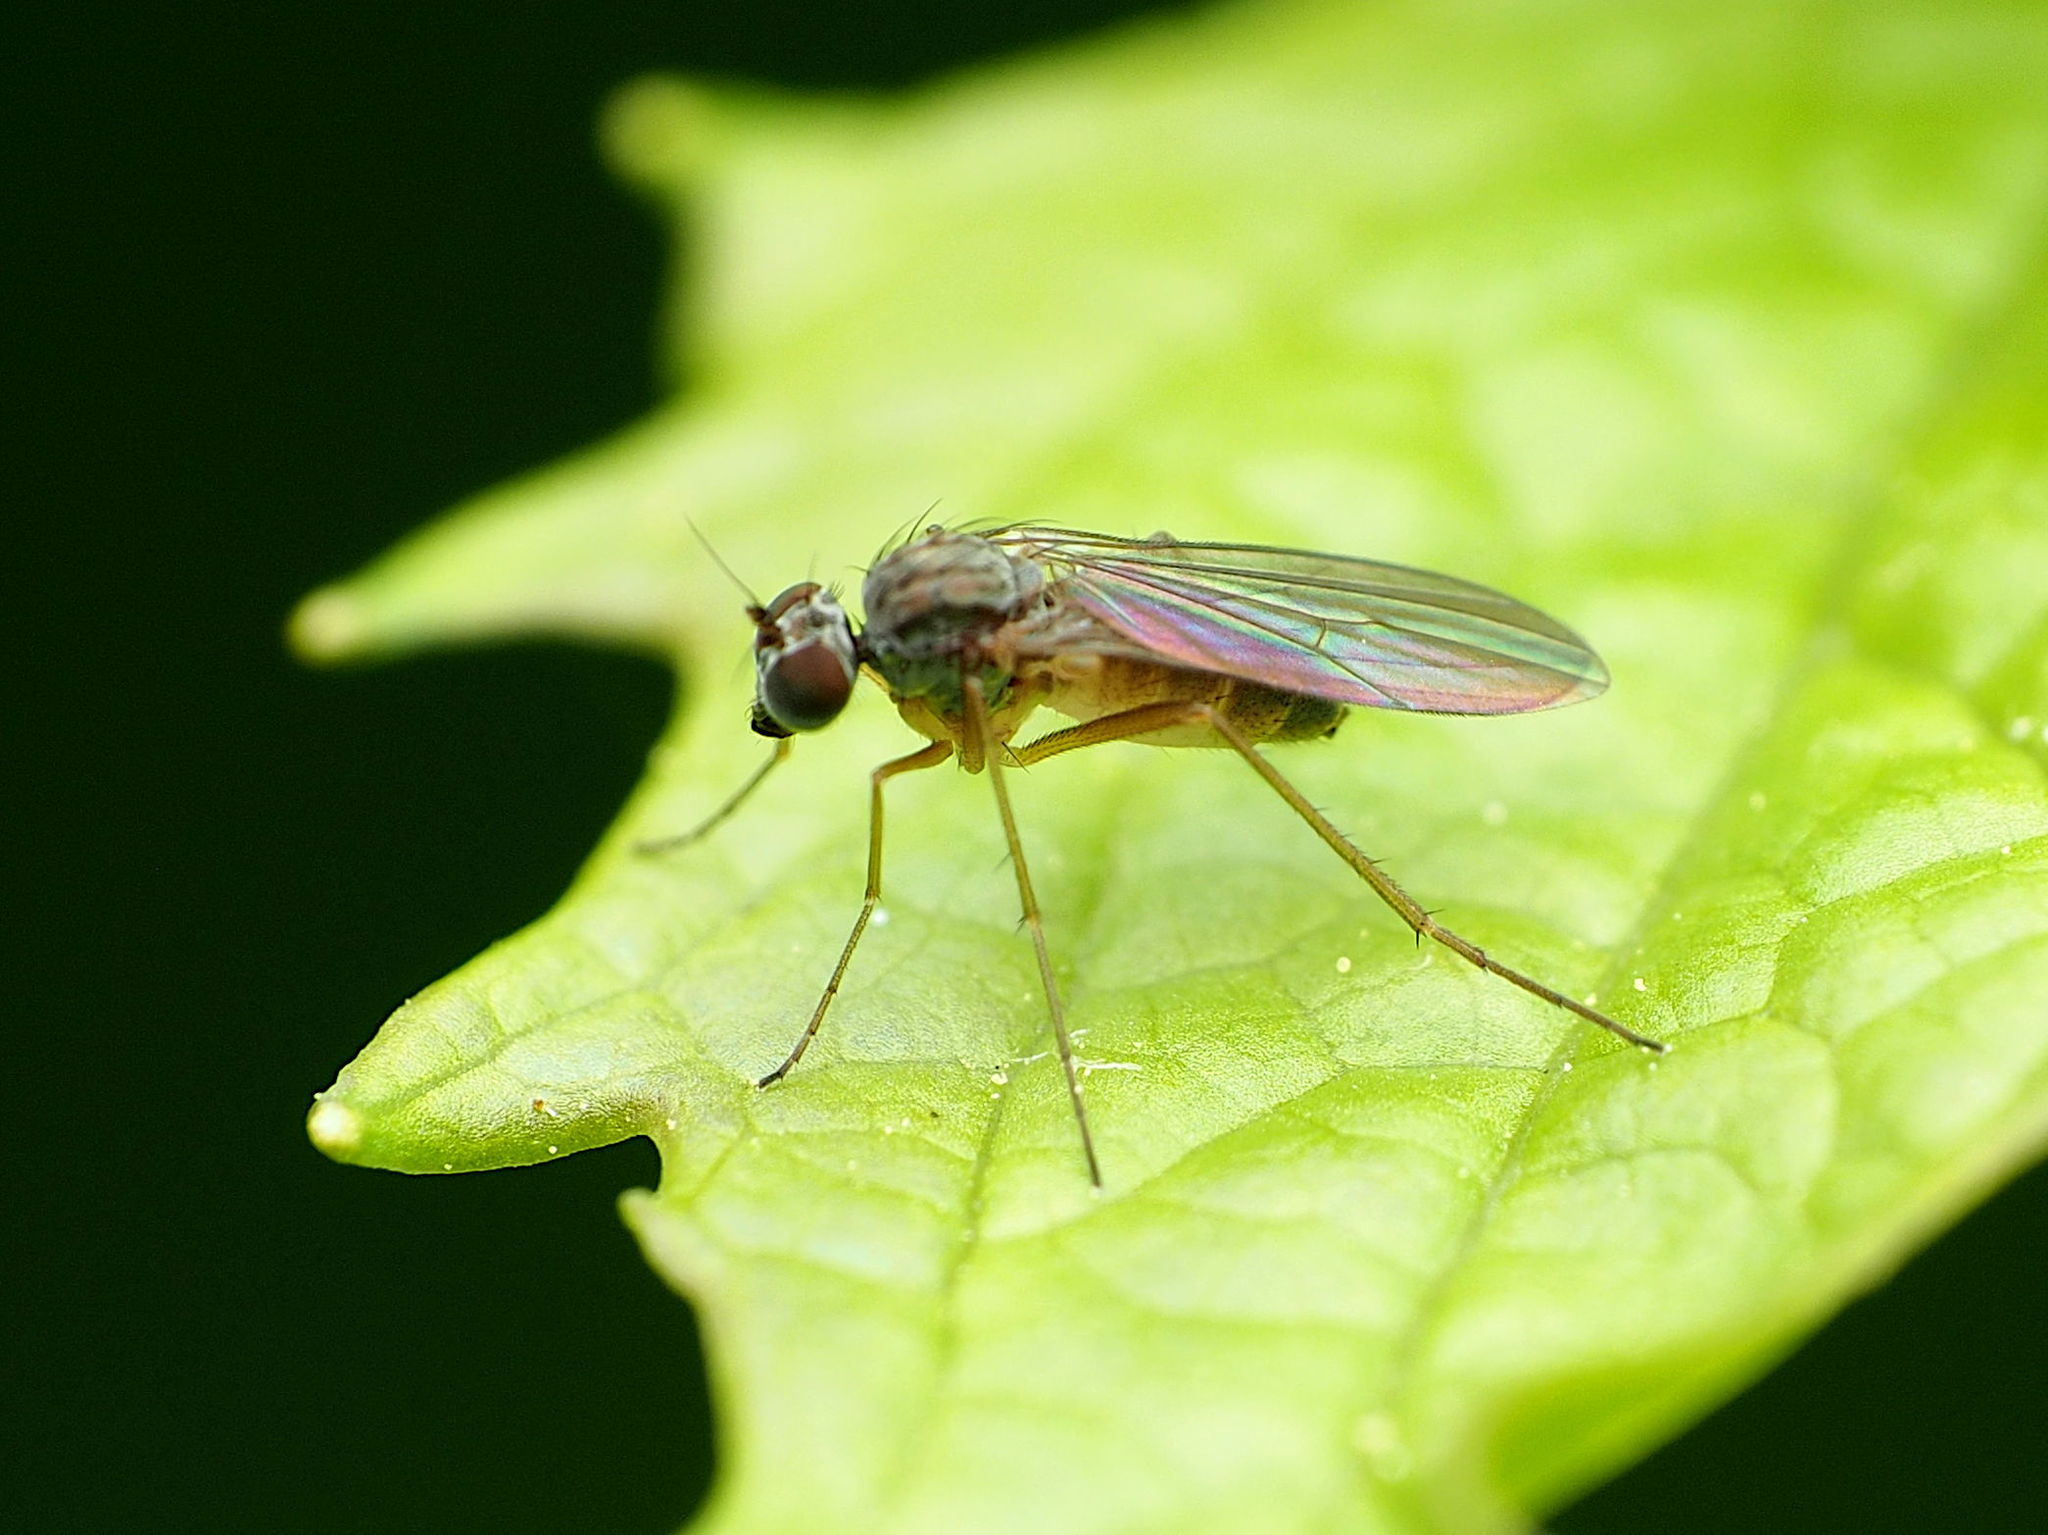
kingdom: Animalia
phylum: Arthropoda
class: Insecta
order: Diptera
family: Dolichopodidae
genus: Sympycnus
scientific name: Sympycnus lineatus
